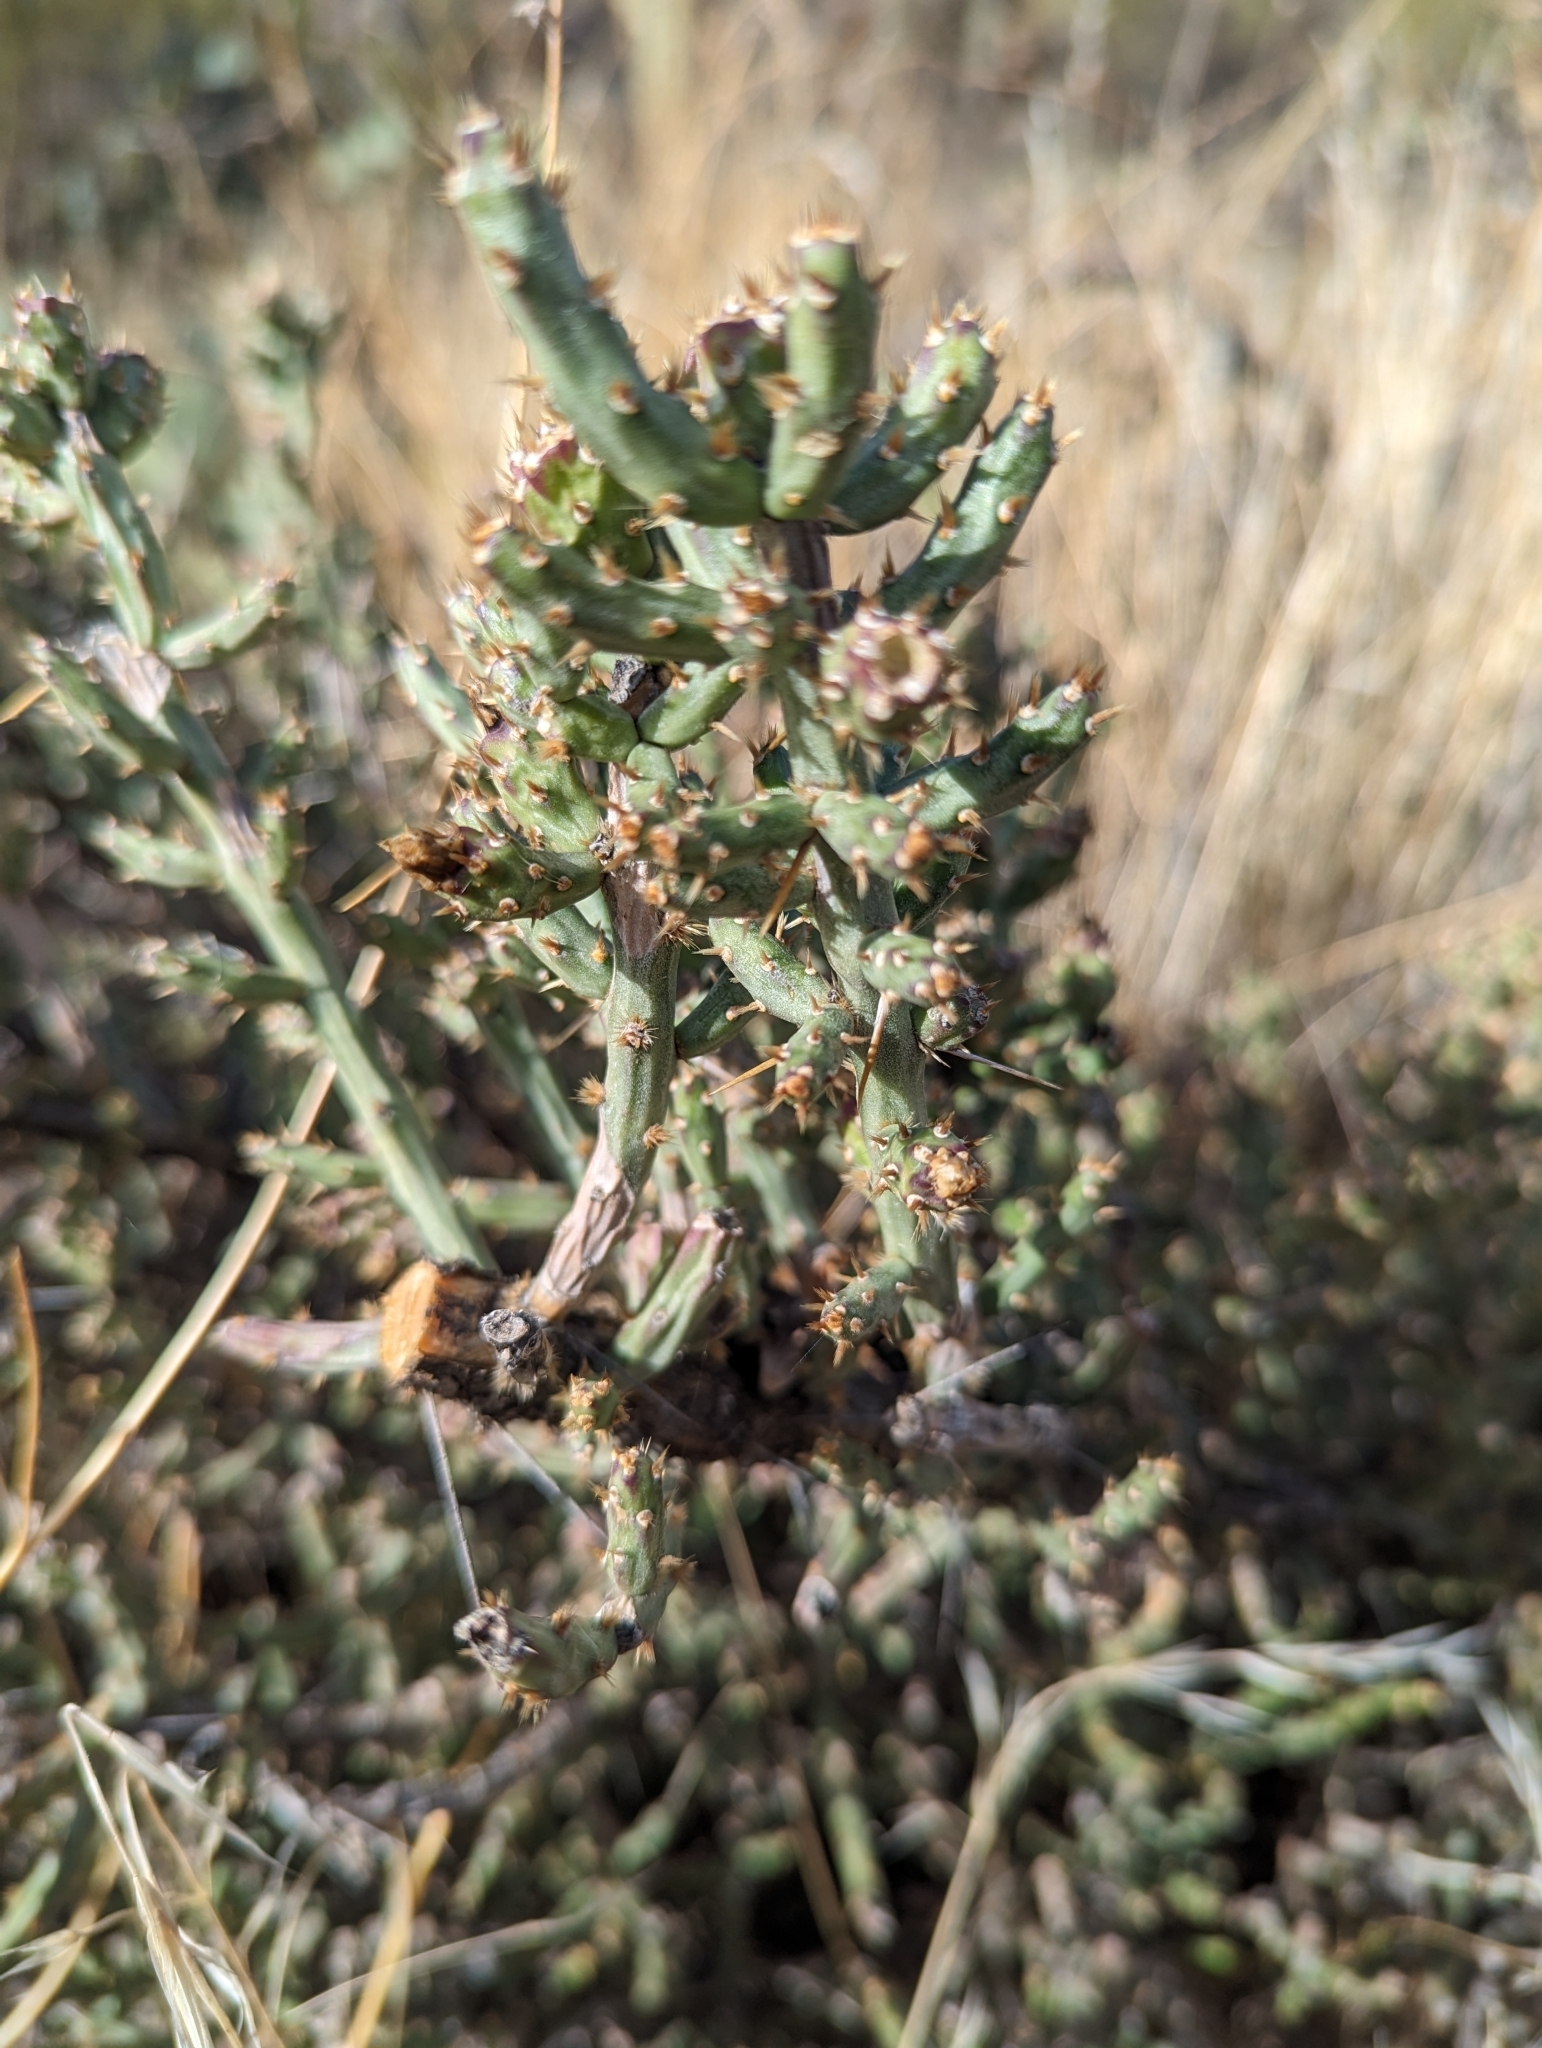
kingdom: Plantae
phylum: Tracheophyta
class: Magnoliopsida
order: Caryophyllales
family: Cactaceae
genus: Cylindropuntia
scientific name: Cylindropuntia leptocaulis
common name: Christmas cactus
